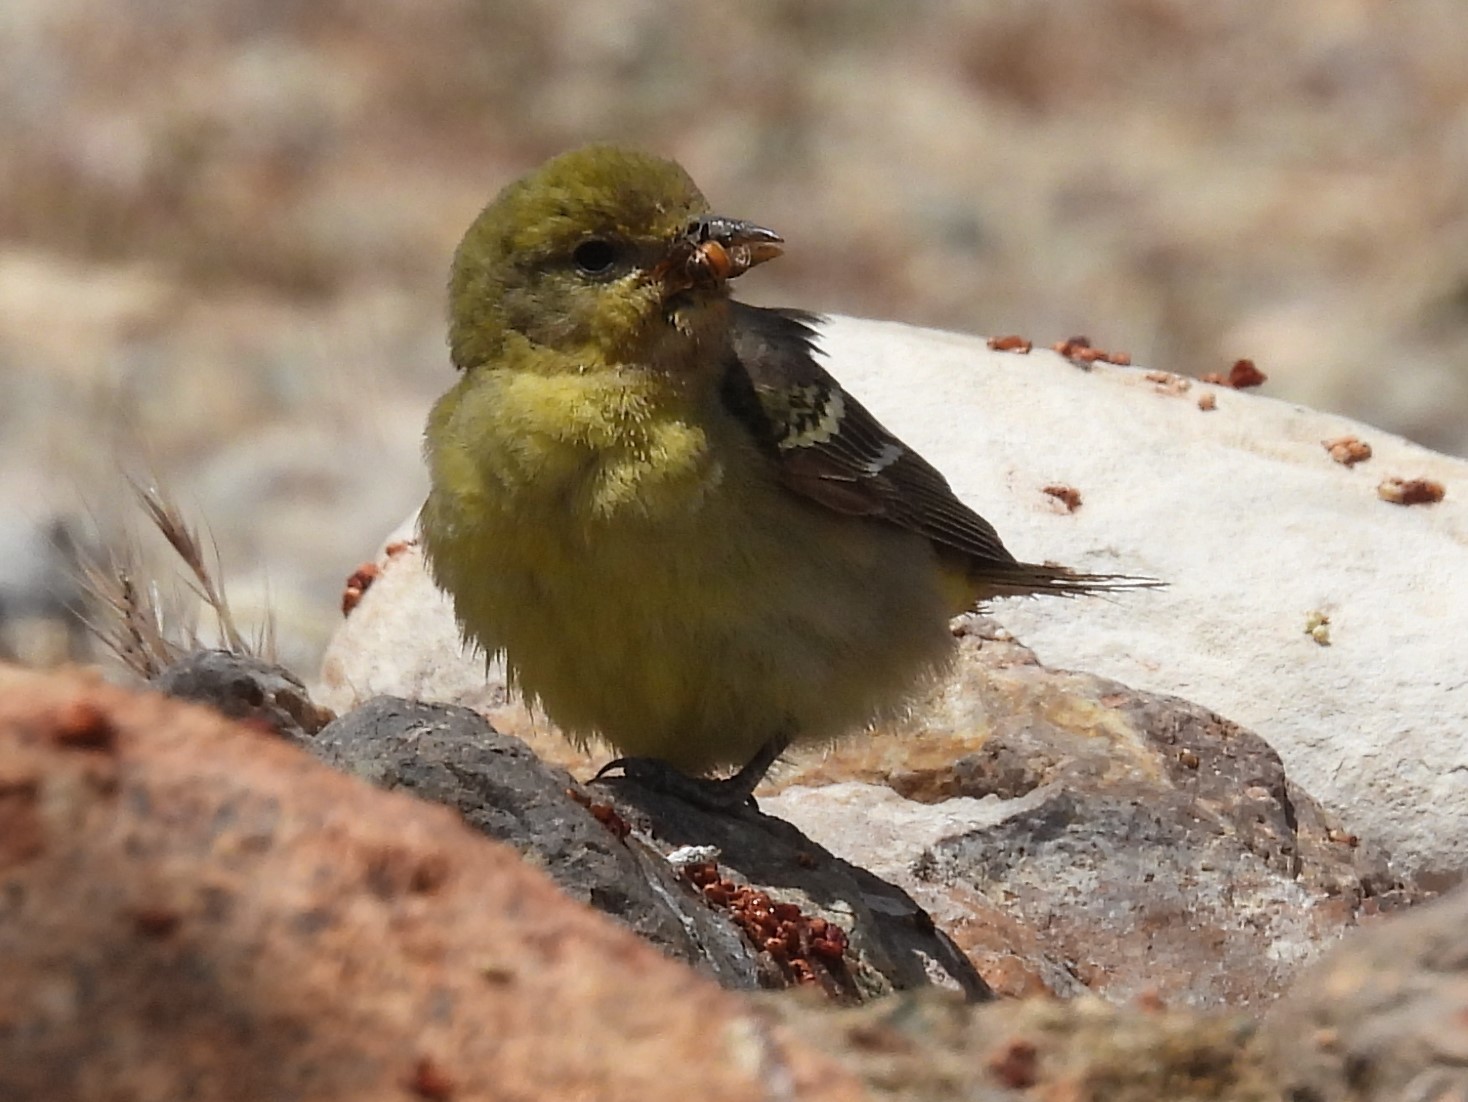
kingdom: Animalia
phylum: Chordata
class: Aves
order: Passeriformes
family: Fringillidae
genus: Spinus
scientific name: Spinus psaltria
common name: Lesser goldfinch
